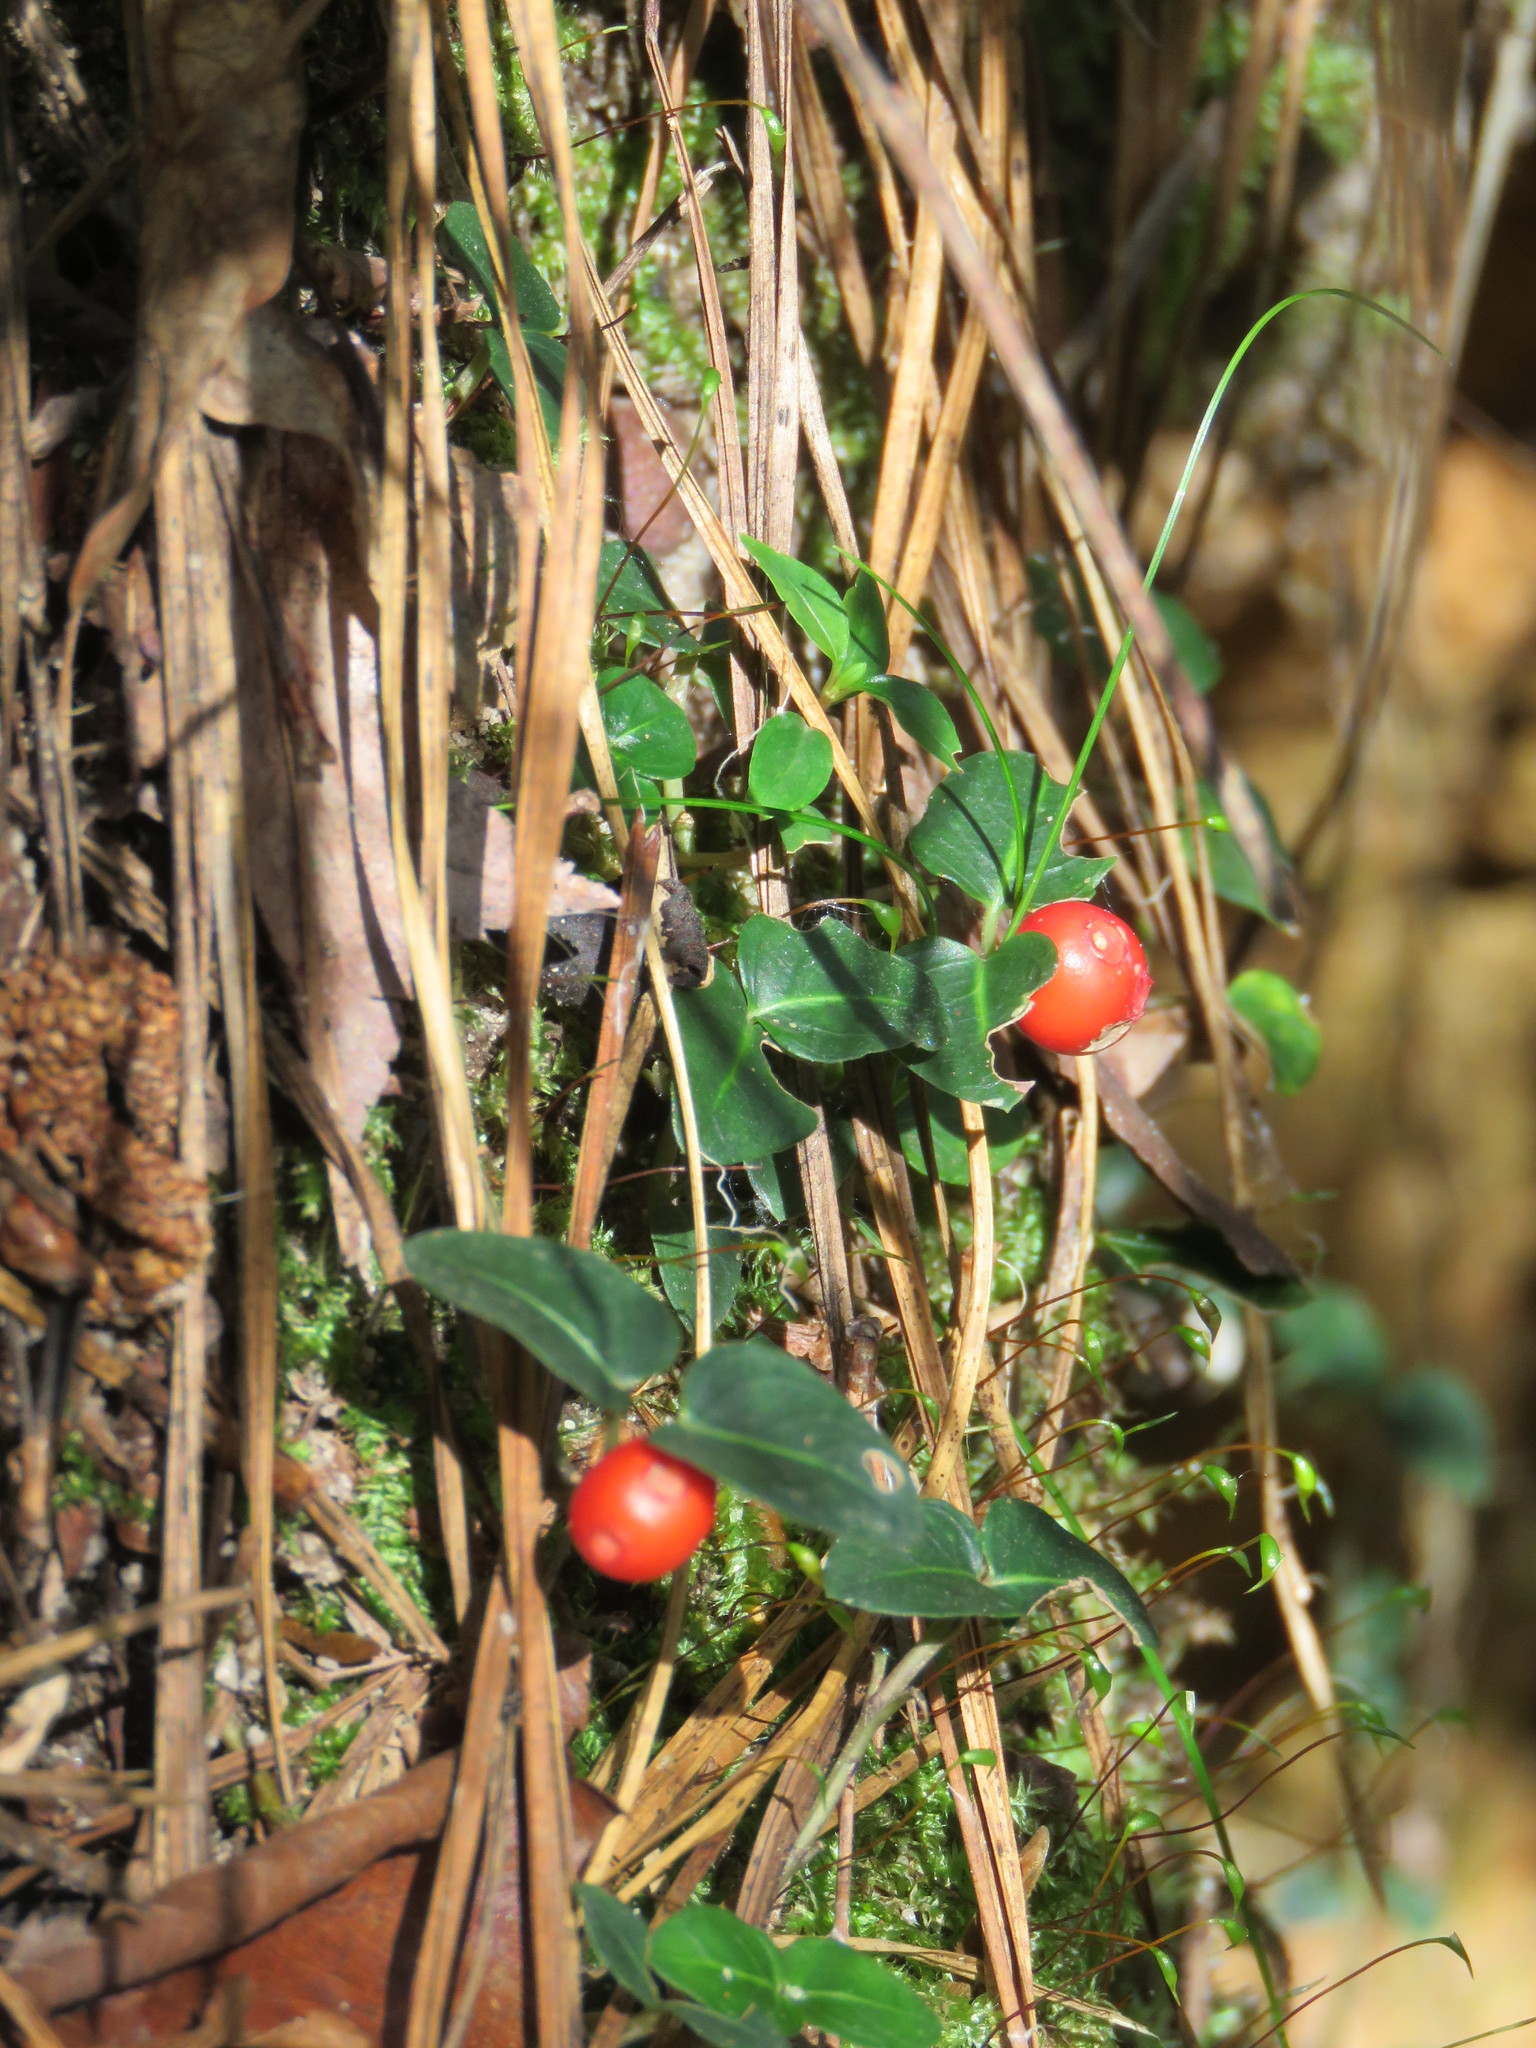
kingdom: Plantae
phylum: Tracheophyta
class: Magnoliopsida
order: Gentianales
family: Rubiaceae
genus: Mitchella
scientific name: Mitchella repens
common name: Partridge-berry
